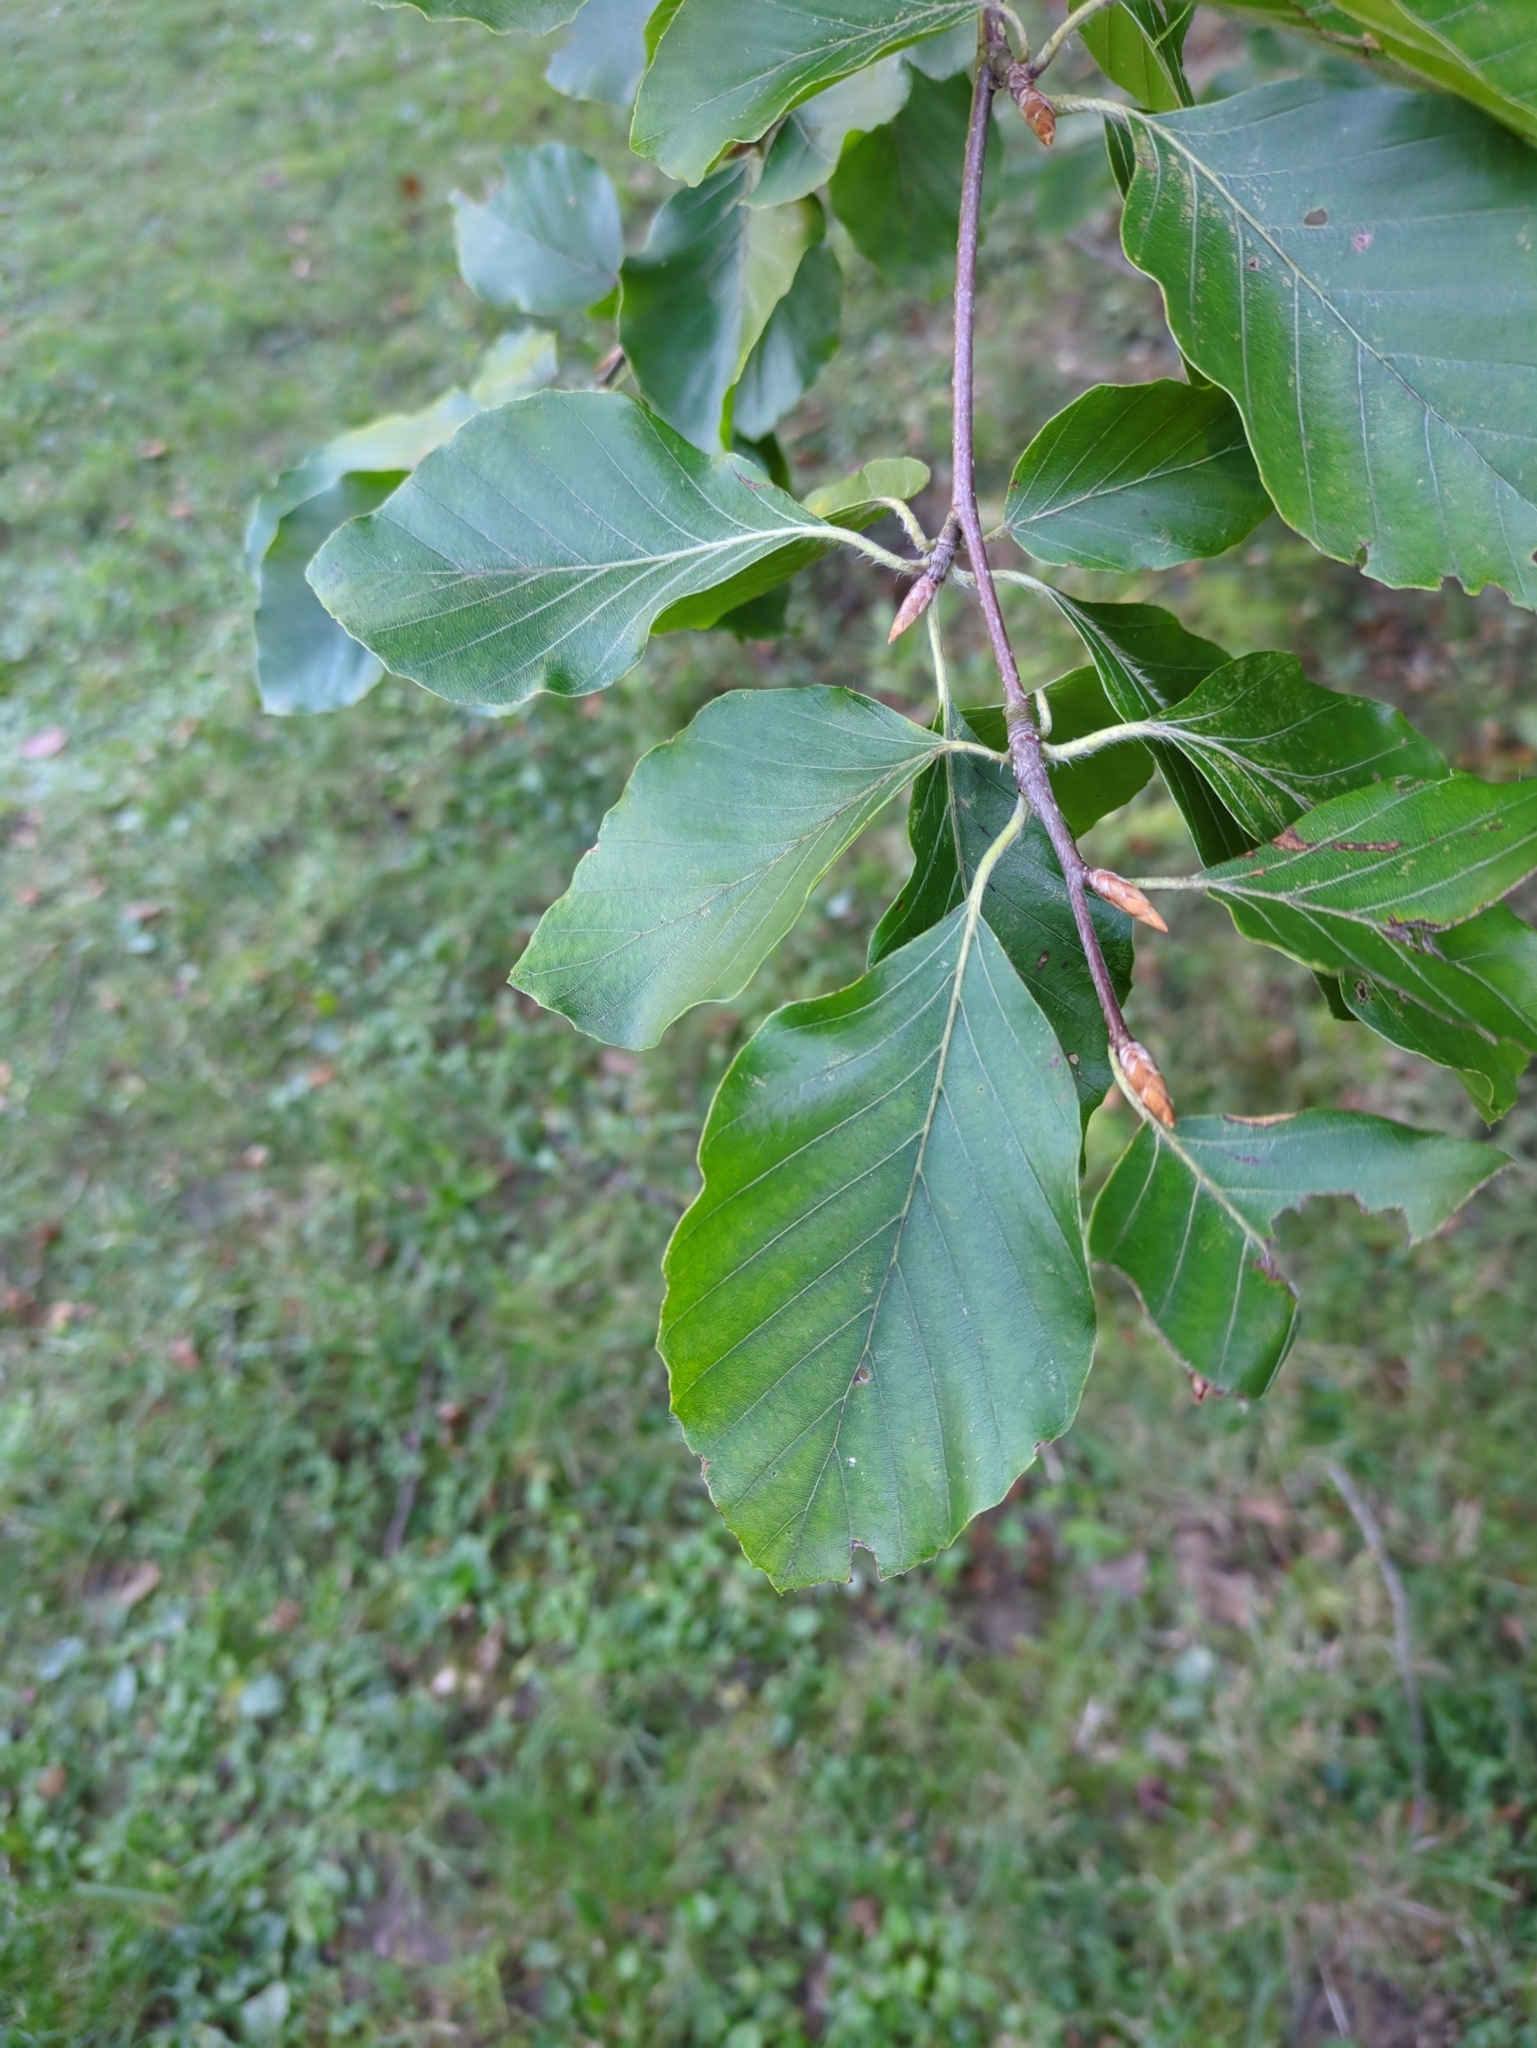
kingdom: Plantae
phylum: Tracheophyta
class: Magnoliopsida
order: Fagales
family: Fagaceae
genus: Fagus
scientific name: Fagus sylvatica
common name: Beech
